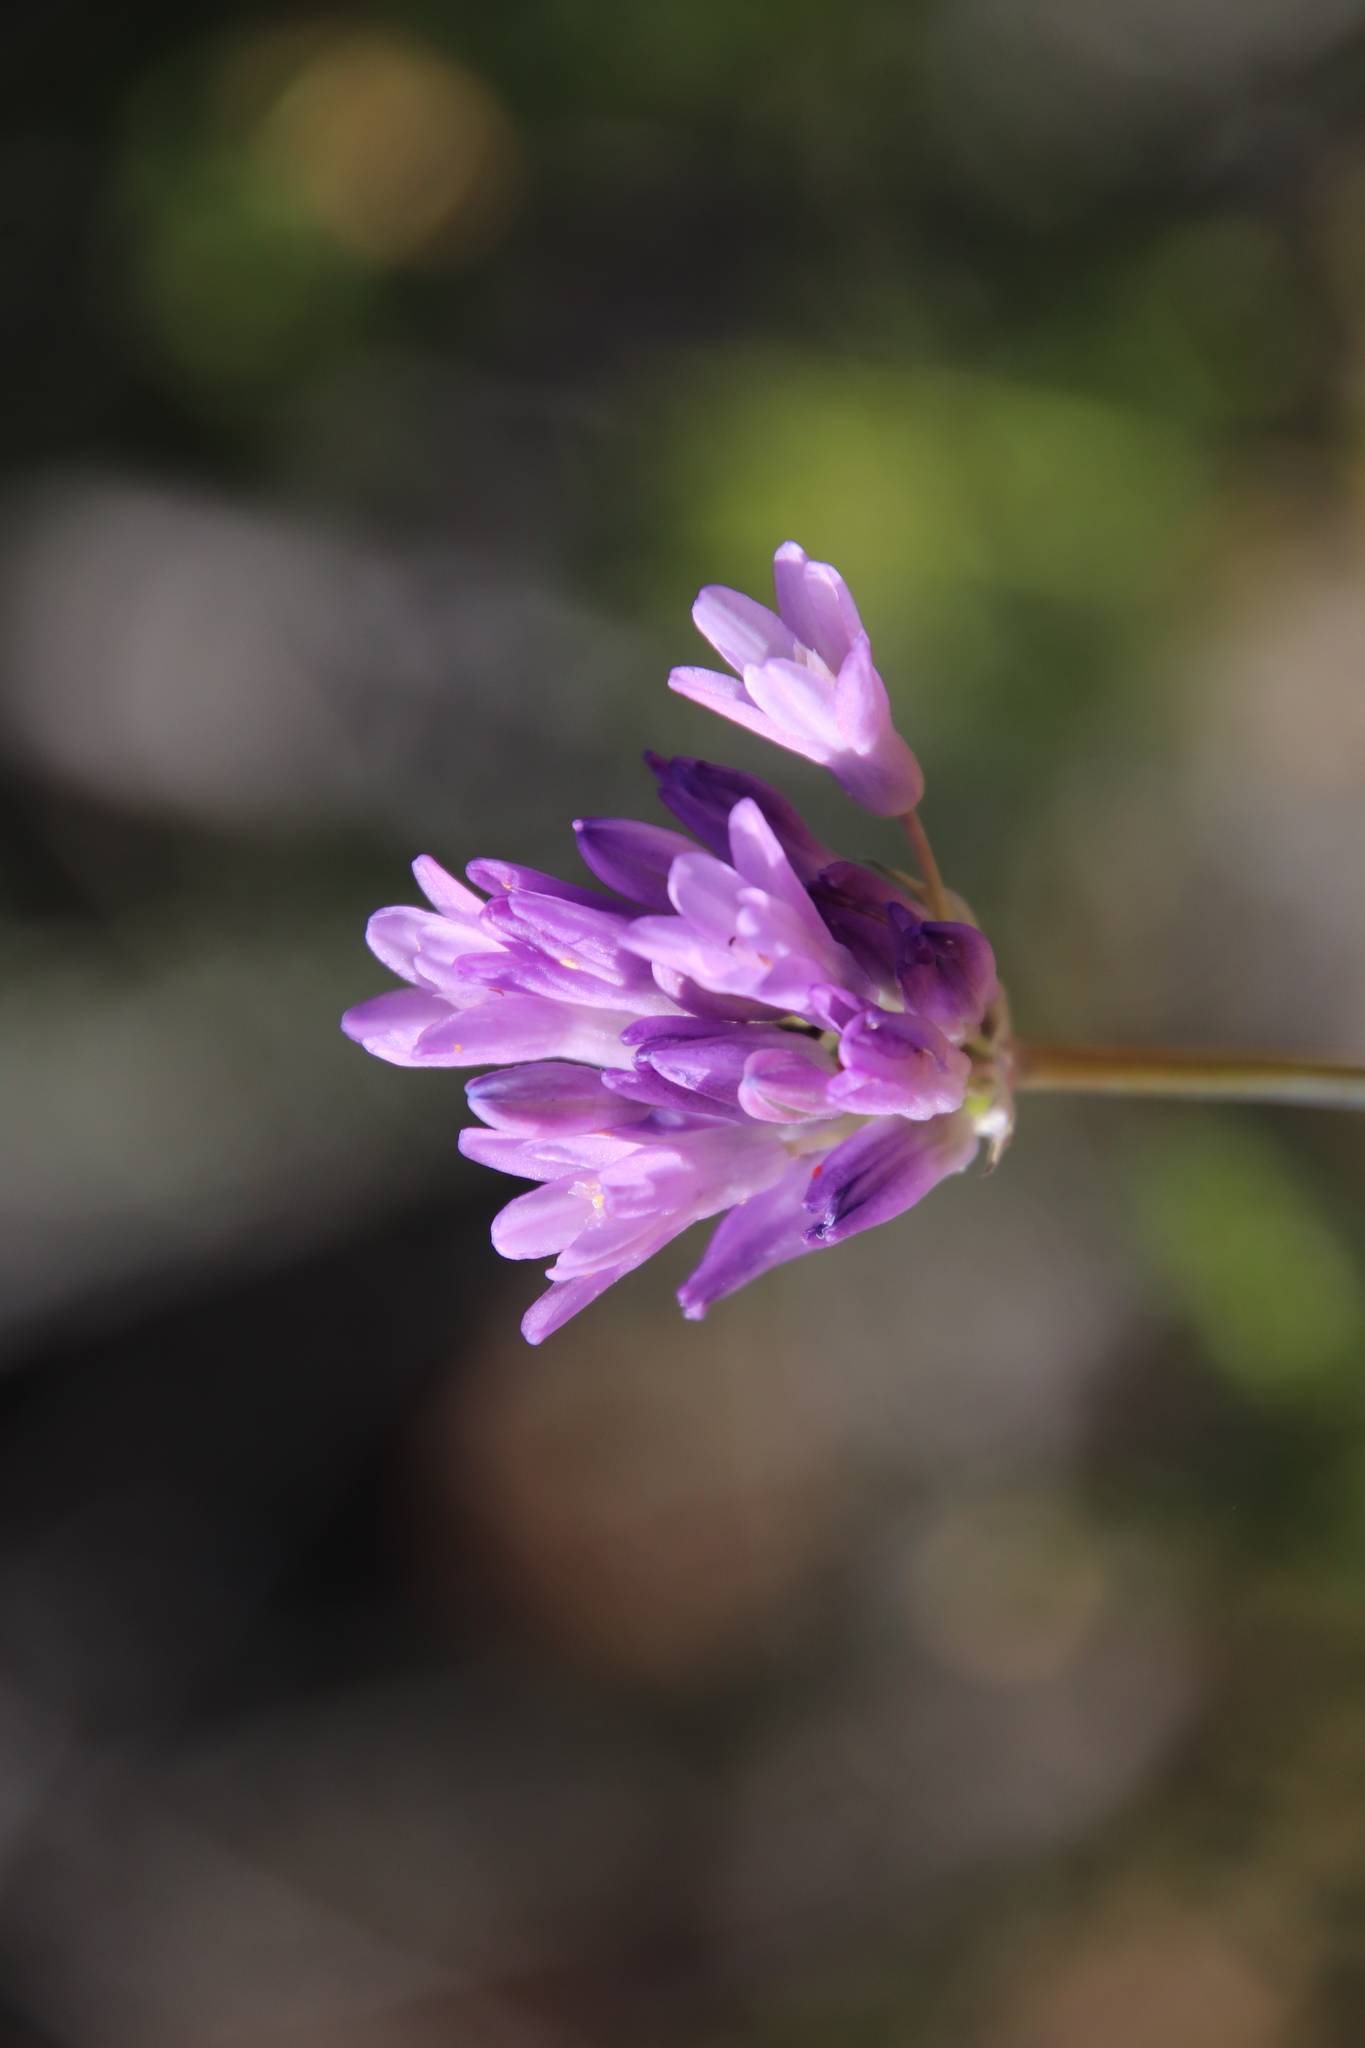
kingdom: Plantae
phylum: Tracheophyta
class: Liliopsida
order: Asparagales
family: Asparagaceae
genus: Dipterostemon
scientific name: Dipterostemon capitatus
